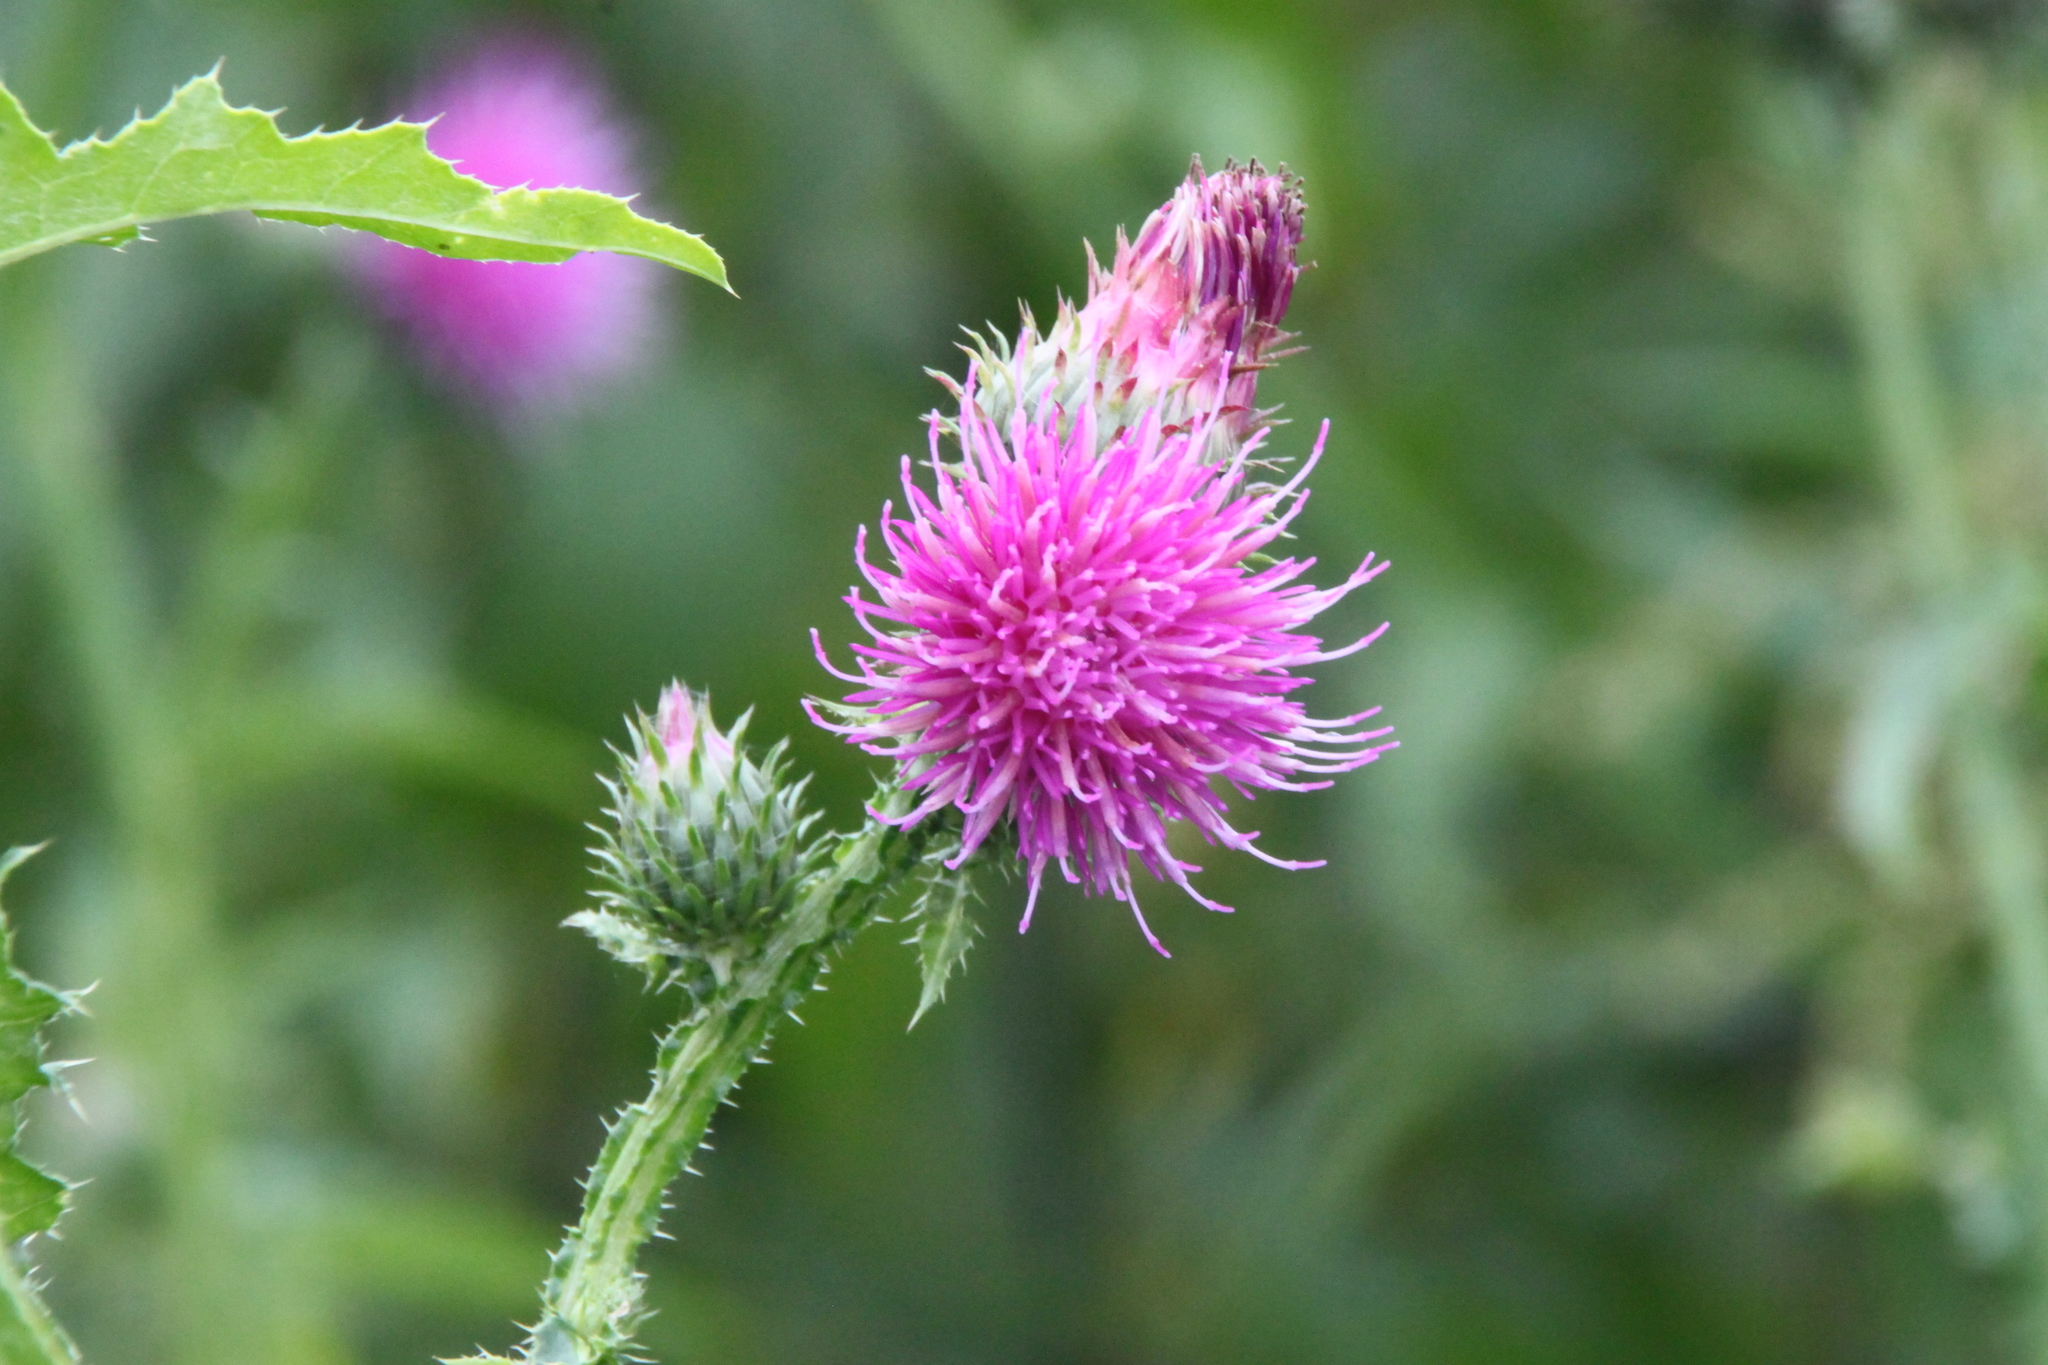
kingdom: Plantae
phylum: Tracheophyta
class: Magnoliopsida
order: Asterales
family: Asteraceae
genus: Carduus
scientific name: Carduus crispus
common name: Welted thistle
